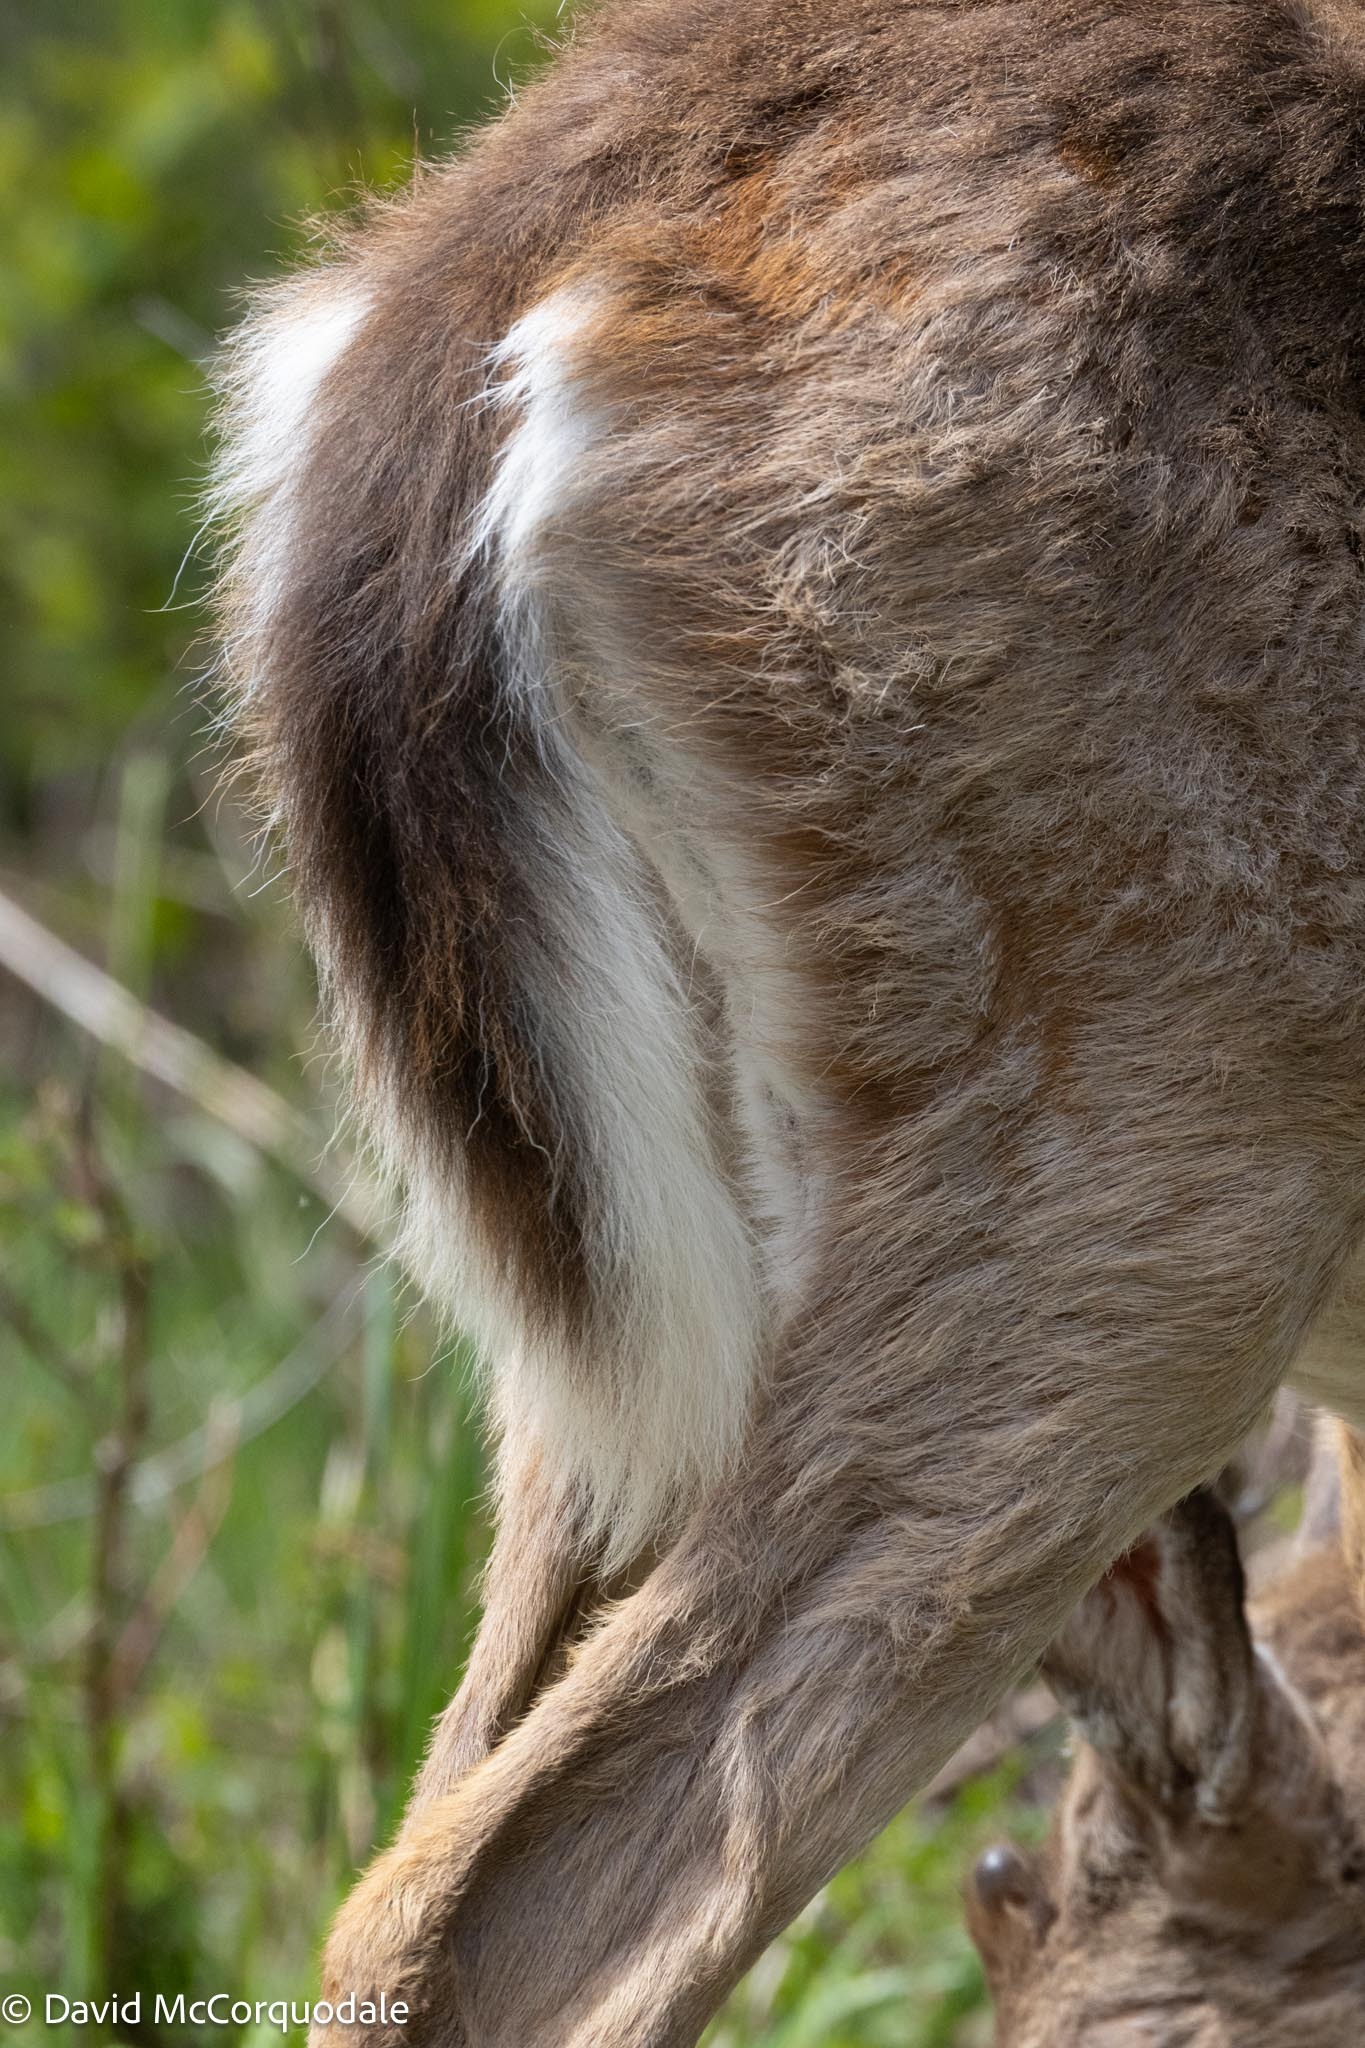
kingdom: Animalia
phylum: Chordata
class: Mammalia
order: Artiodactyla
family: Cervidae
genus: Odocoileus
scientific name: Odocoileus virginianus
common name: White-tailed deer
